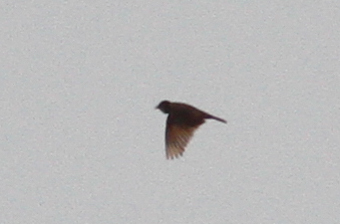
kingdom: Animalia
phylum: Chordata
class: Aves
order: Passeriformes
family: Alaudidae
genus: Alauda
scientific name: Alauda gulgula
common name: Oriental skylark
